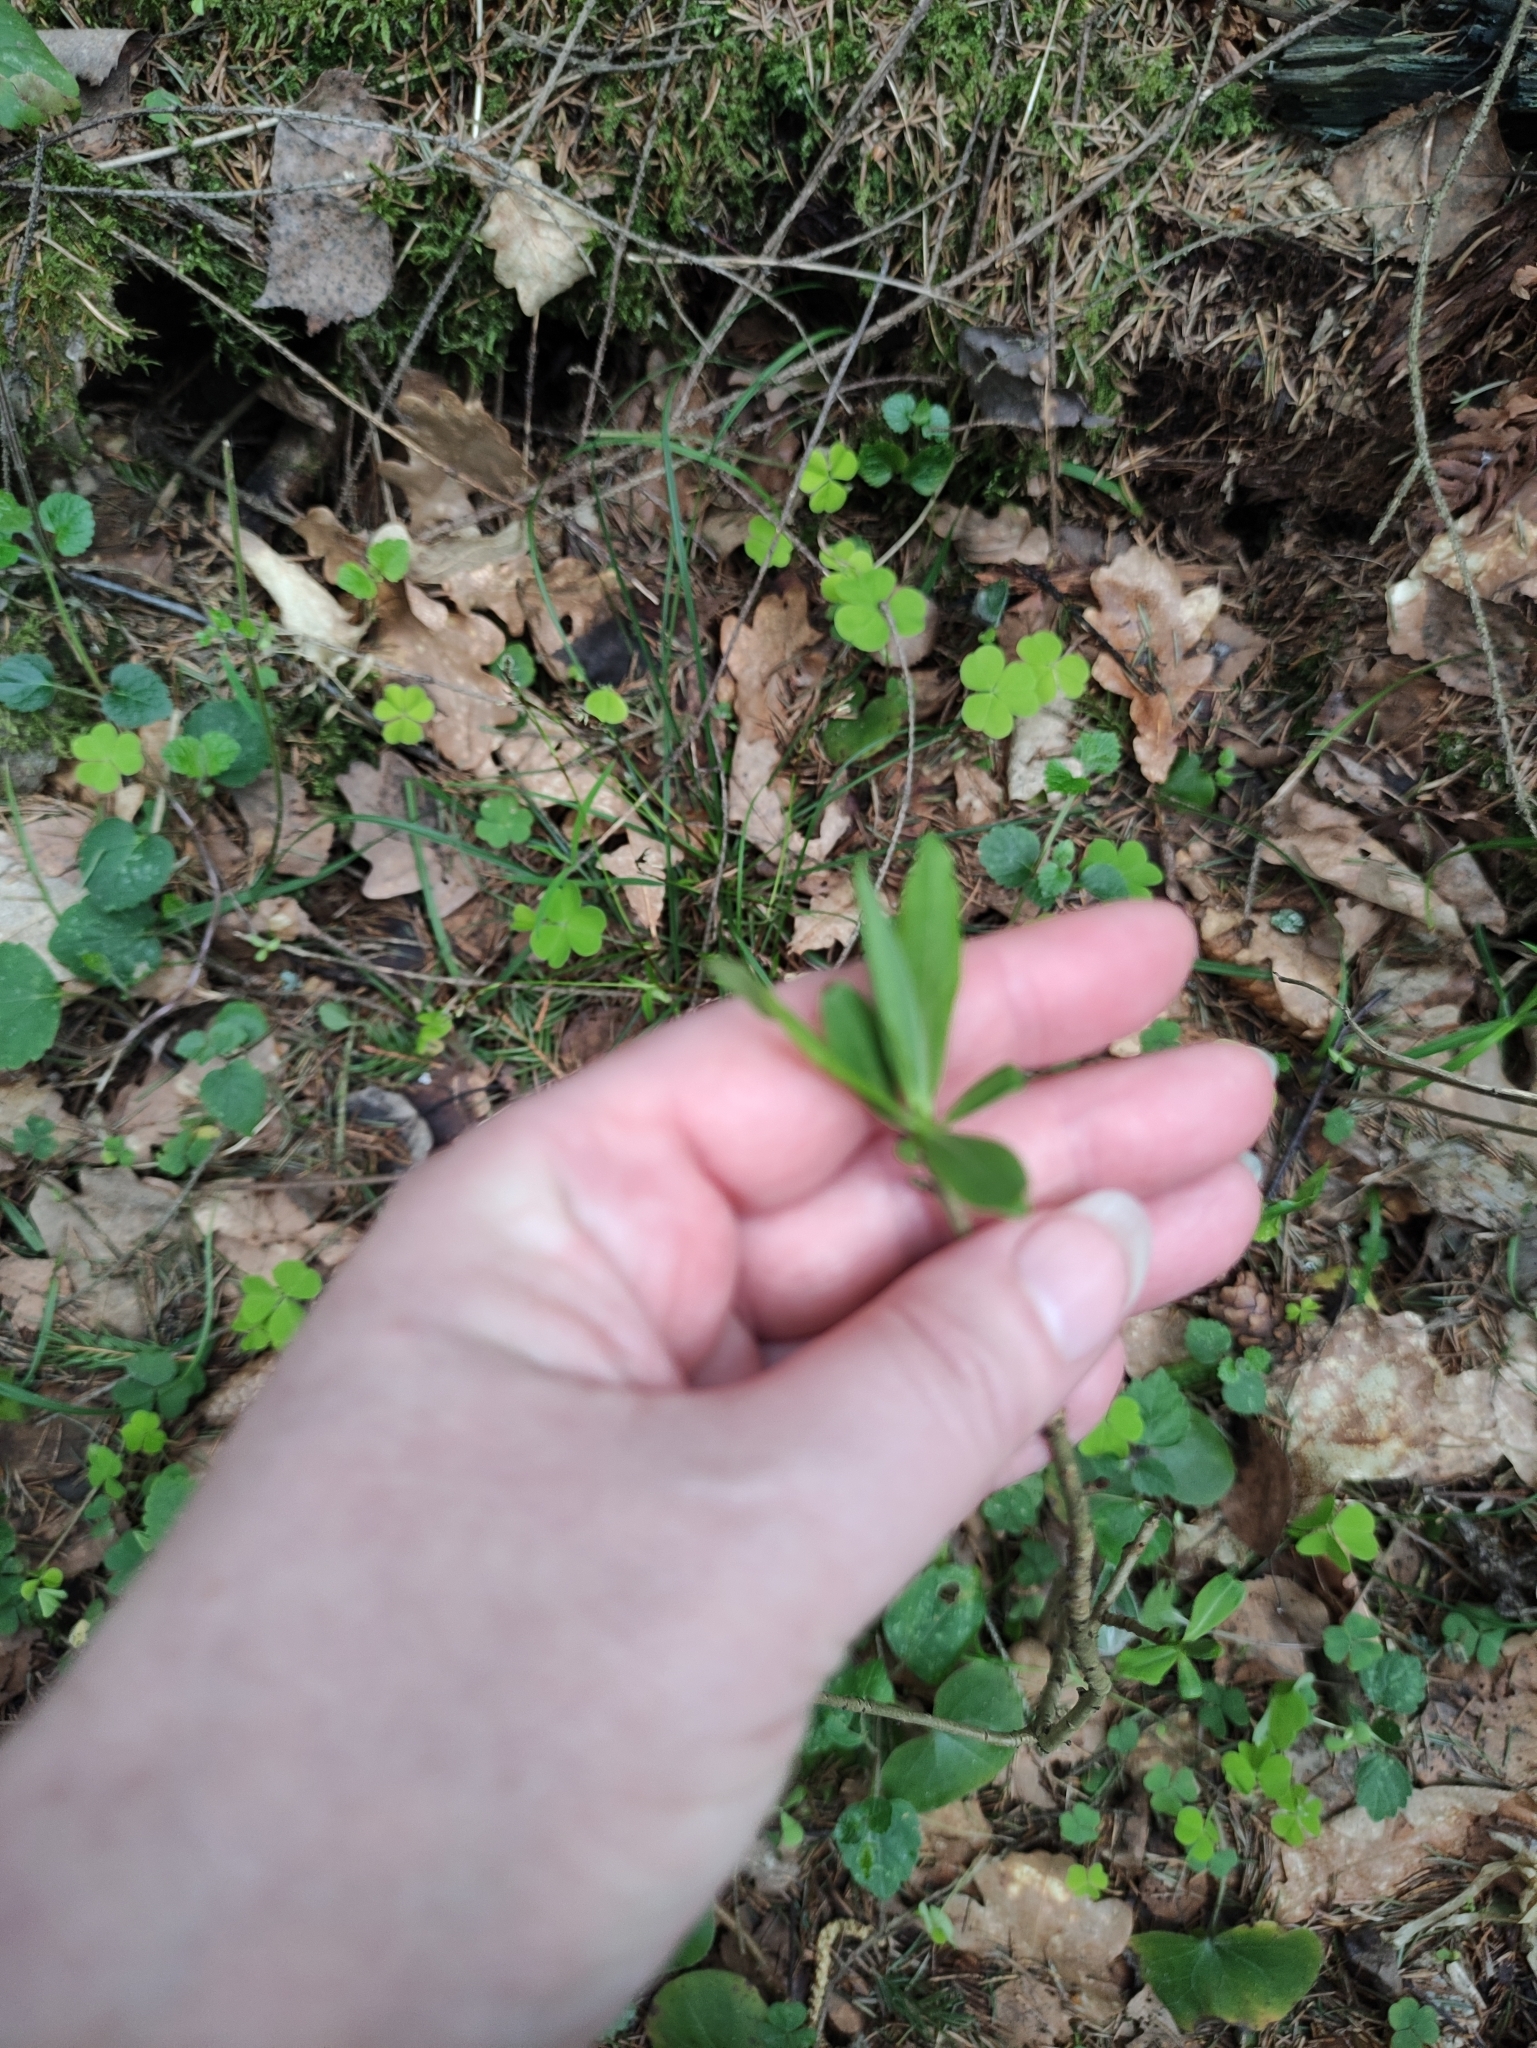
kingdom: Plantae
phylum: Tracheophyta
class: Magnoliopsida
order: Malvales
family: Thymelaeaceae
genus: Daphne
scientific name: Daphne mezereum
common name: Mezereon
